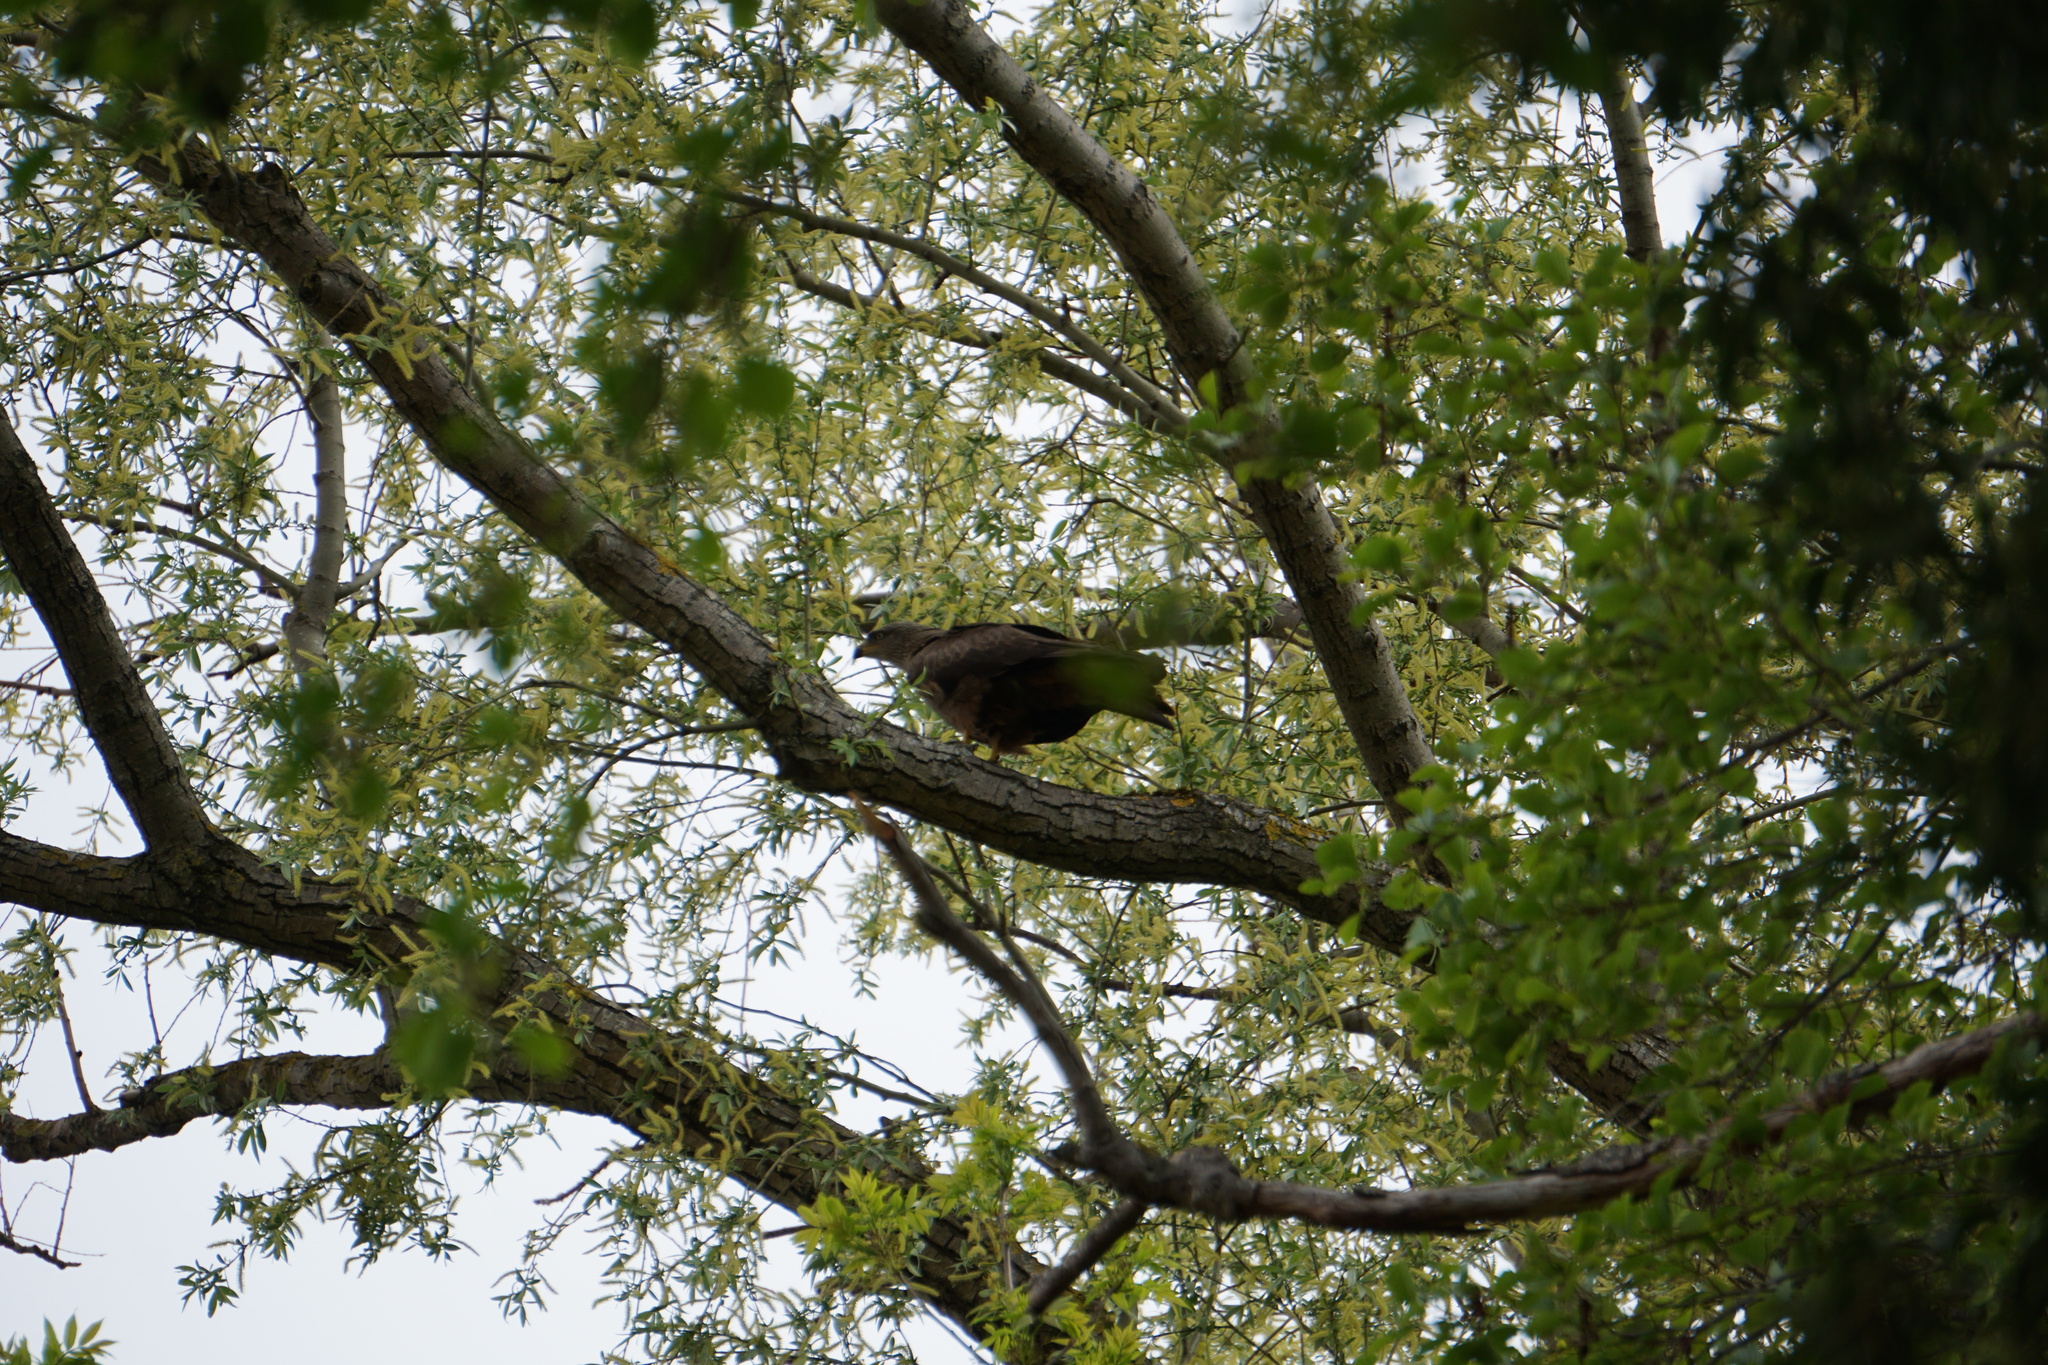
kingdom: Animalia
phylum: Chordata
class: Aves
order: Accipitriformes
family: Accipitridae
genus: Milvus
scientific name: Milvus migrans
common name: Black kite
